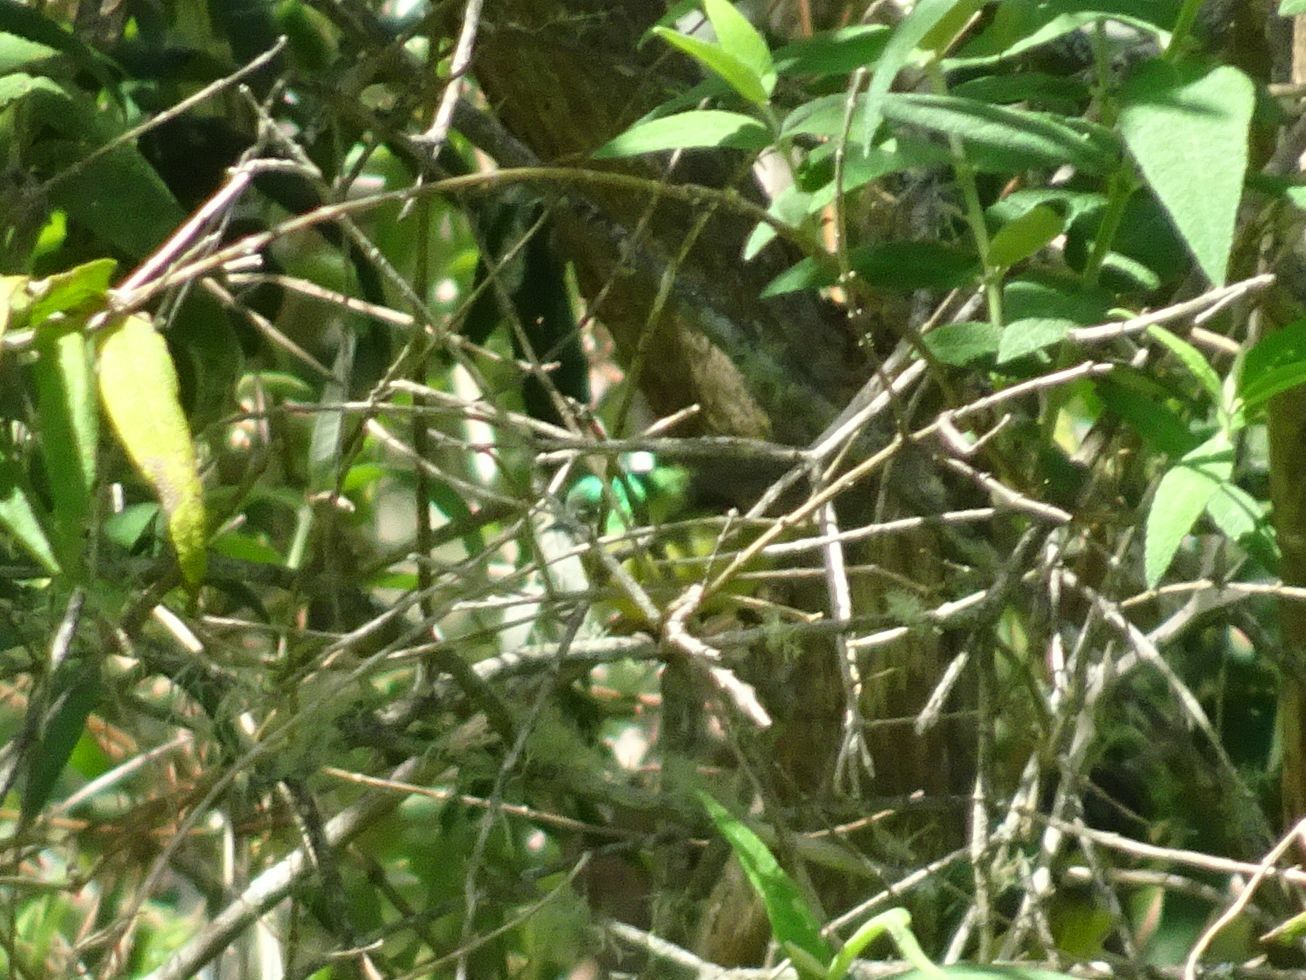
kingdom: Animalia
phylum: Chordata
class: Aves
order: Passeriformes
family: Nectariniidae
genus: Hedydipna
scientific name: Hedydipna collaris
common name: Collared sunbird
